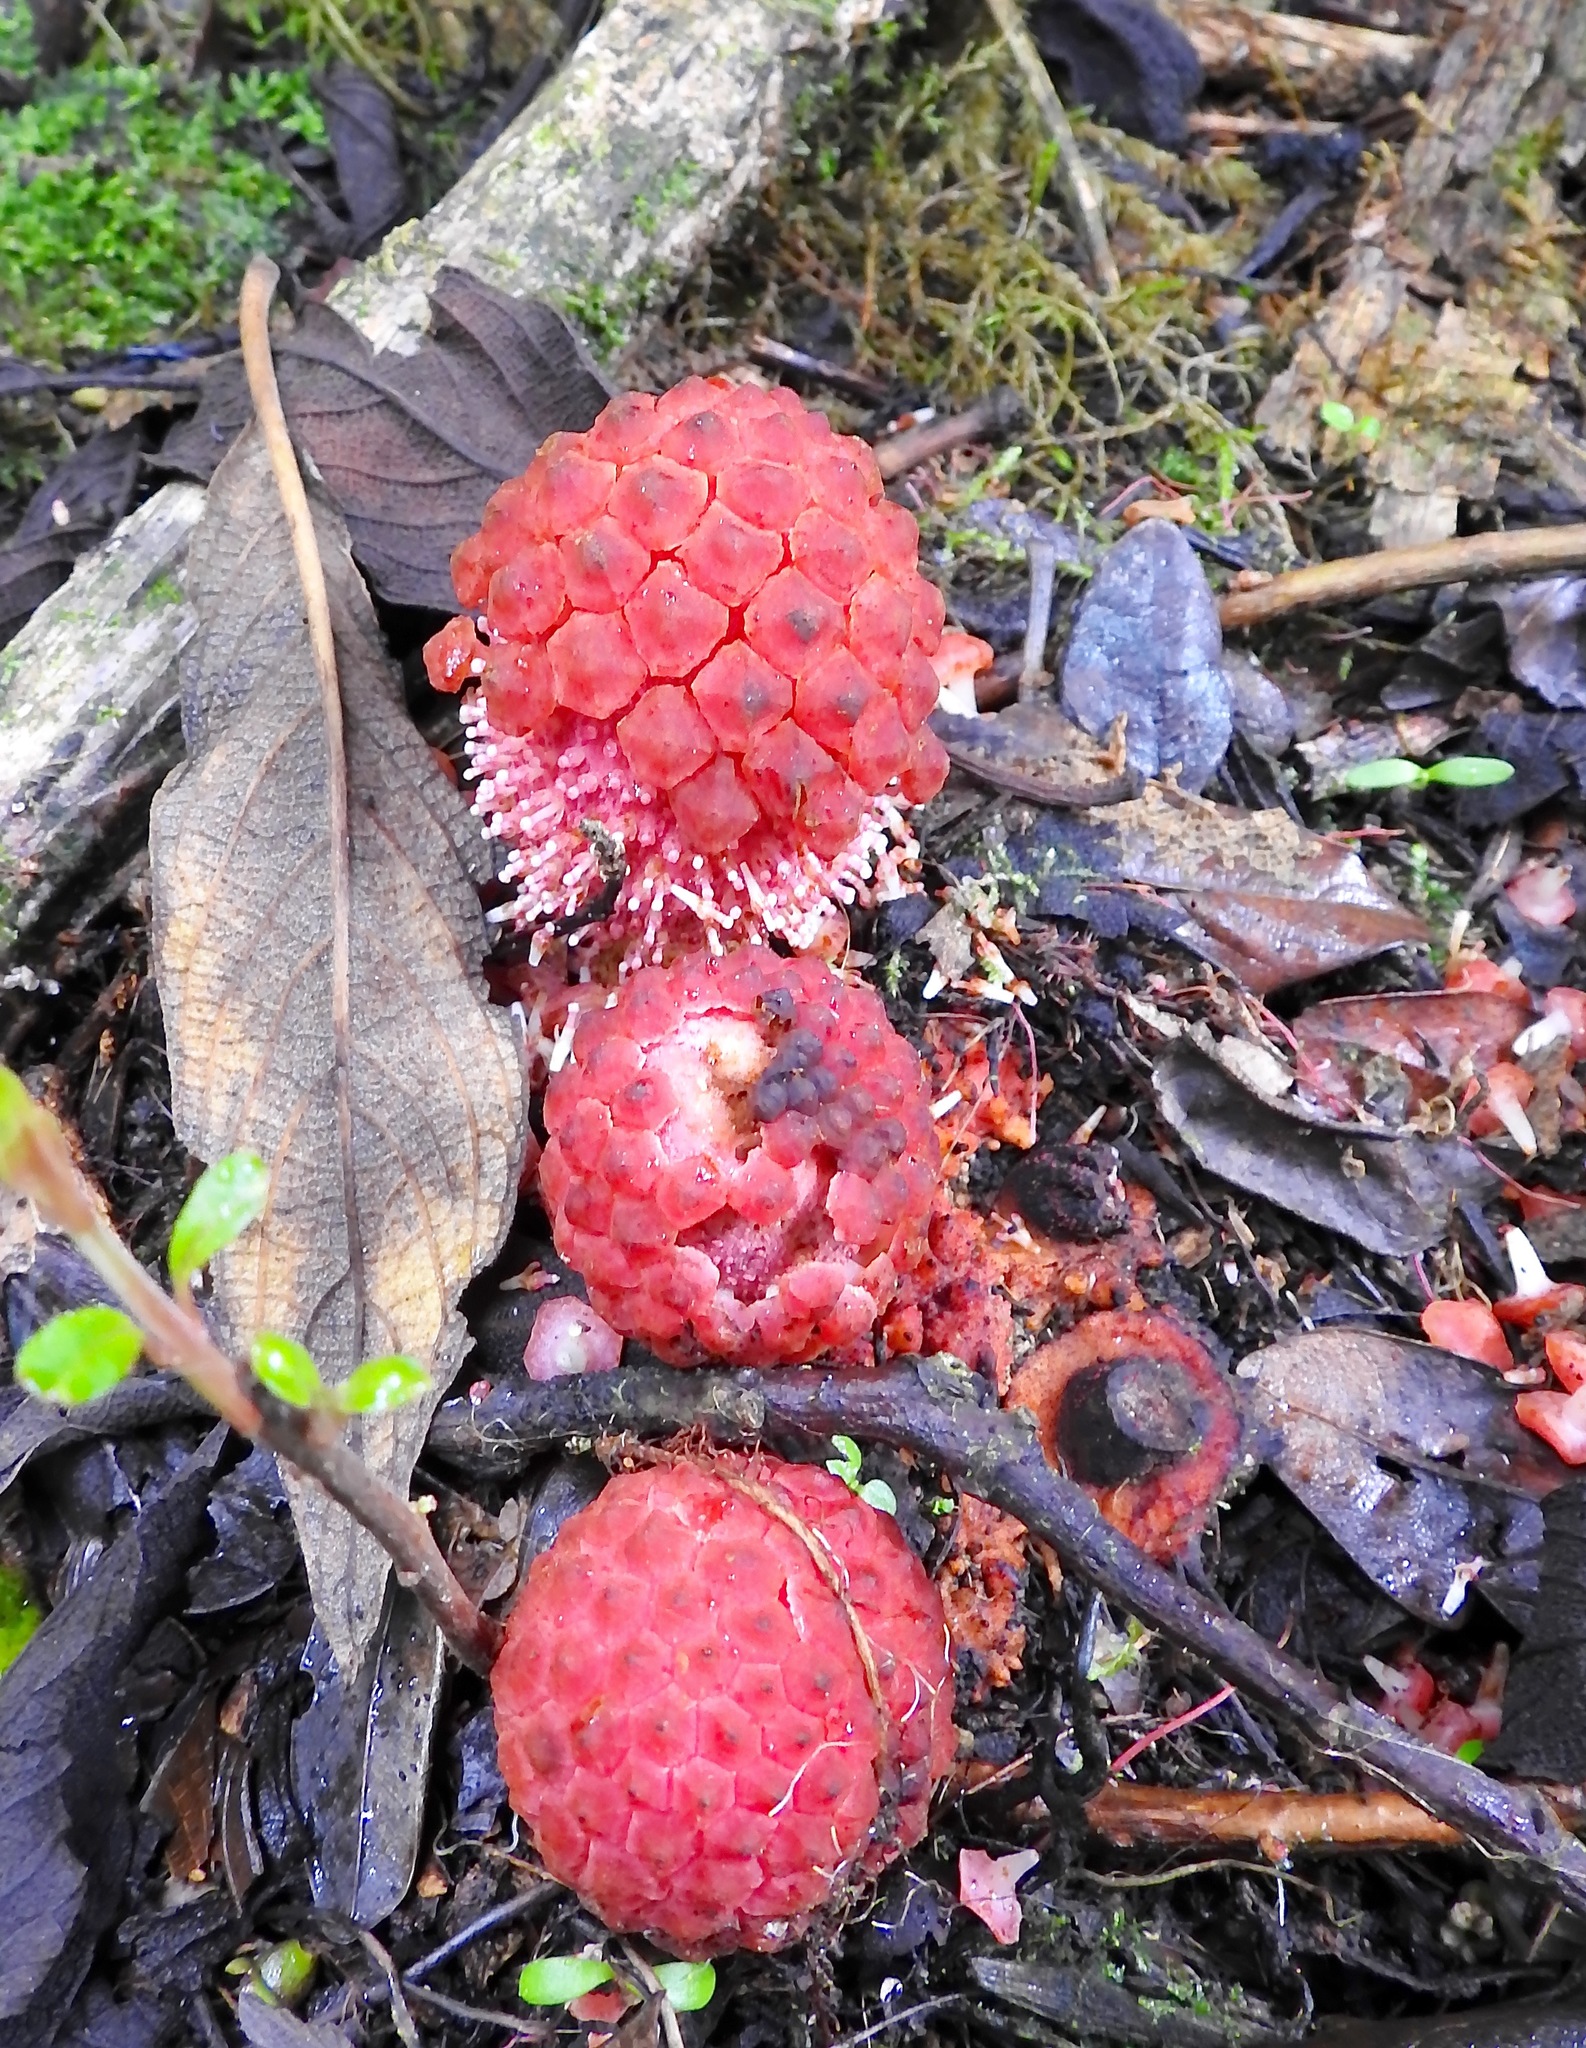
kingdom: Plantae
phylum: Tracheophyta
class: Magnoliopsida
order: Santalales
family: Balanophoraceae
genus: Corynaea
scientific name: Corynaea crassa
